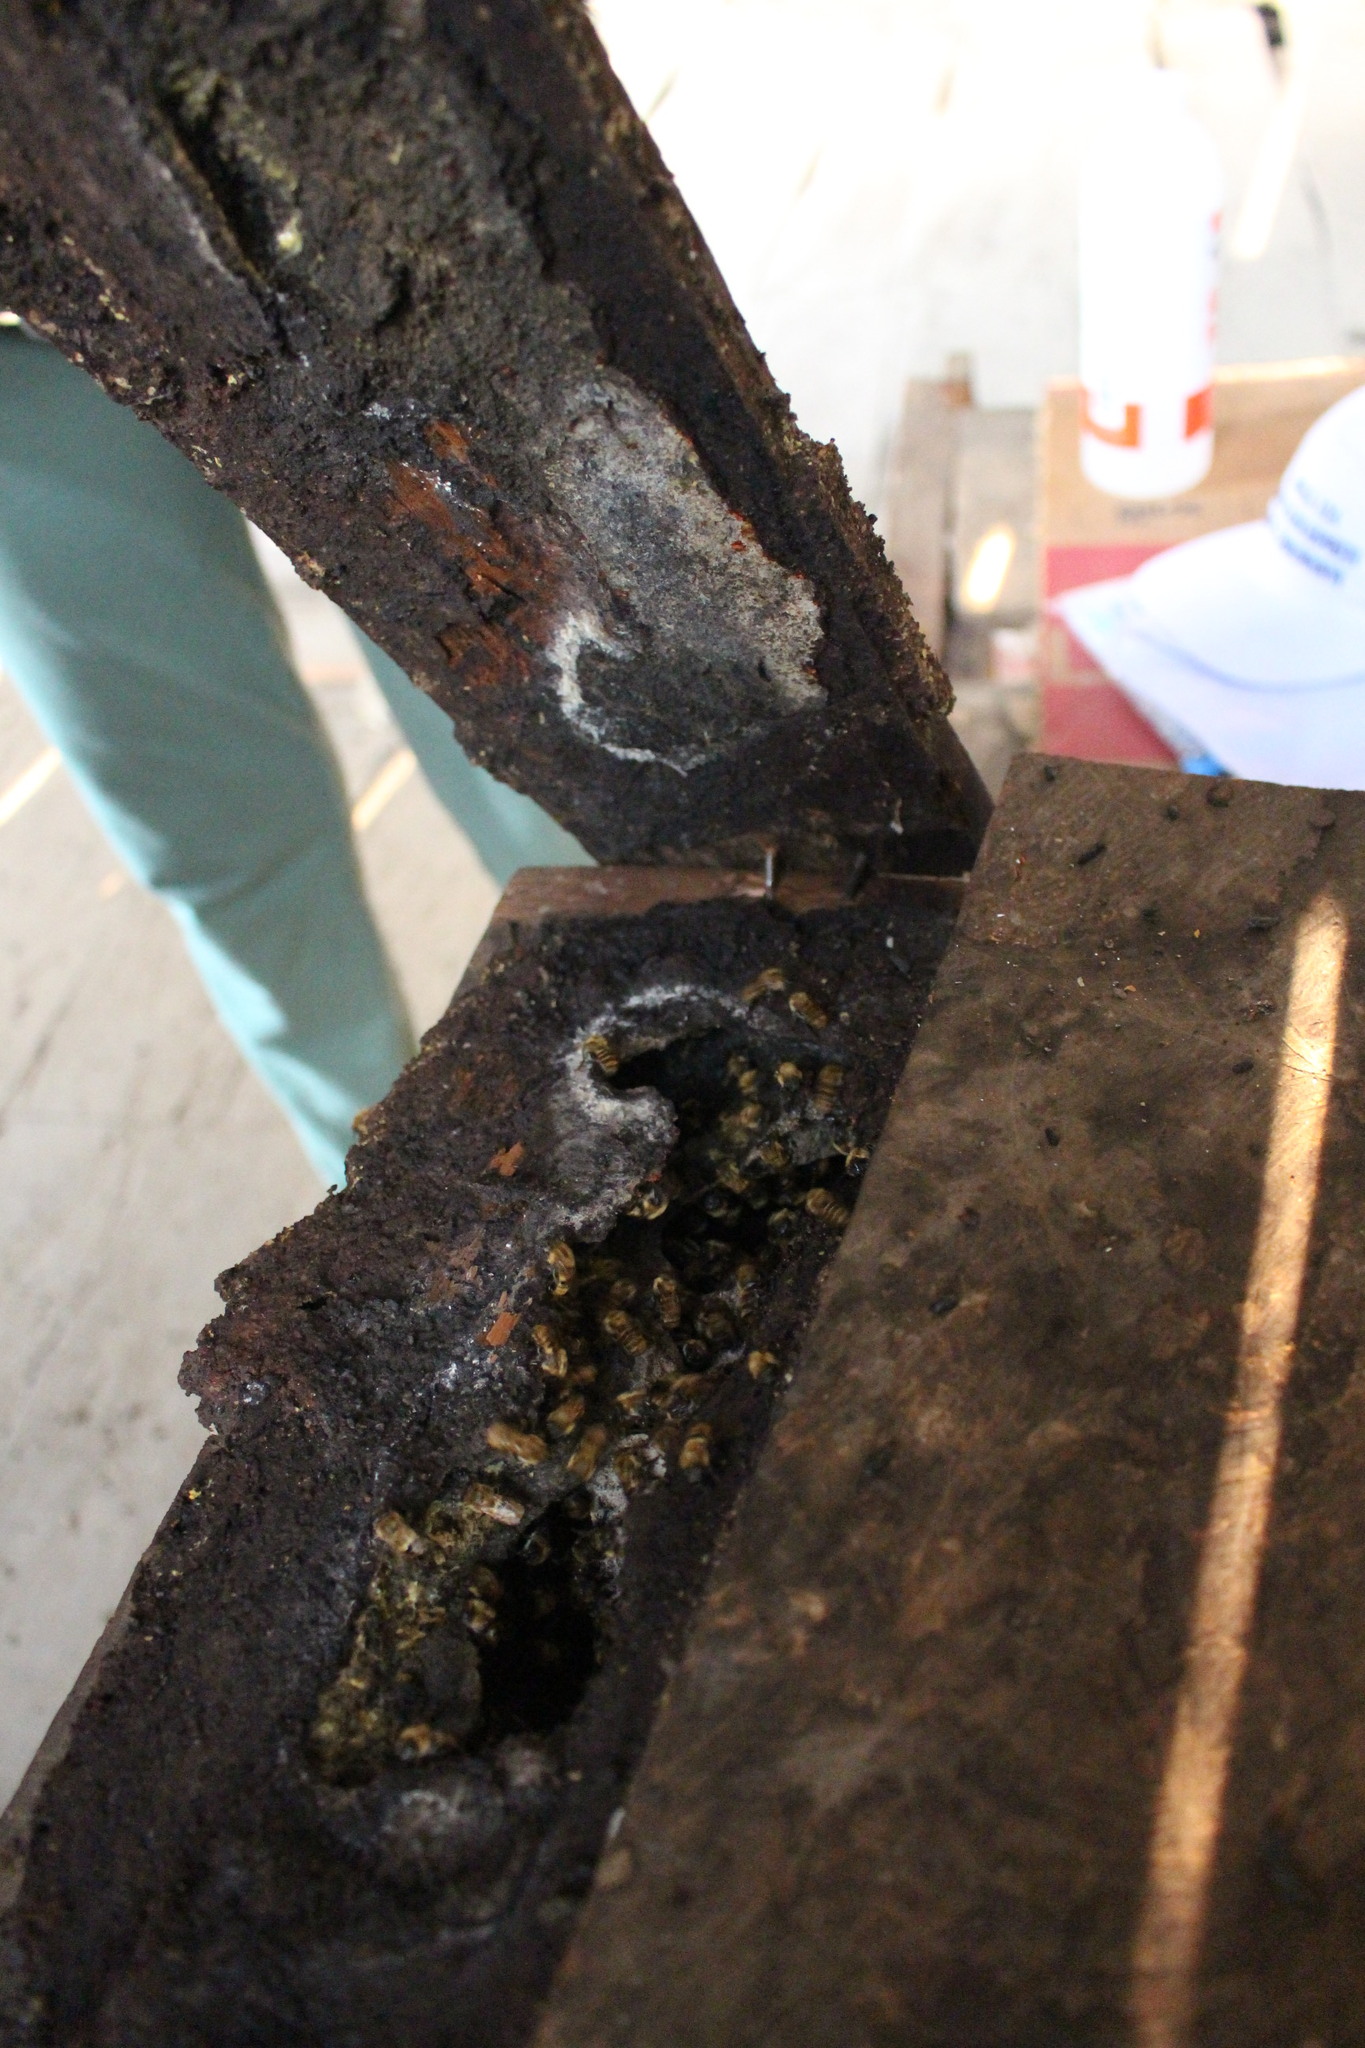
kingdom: Animalia
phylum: Arthropoda
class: Insecta
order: Hymenoptera
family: Apidae
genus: Melipona
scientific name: Melipona eburnea
